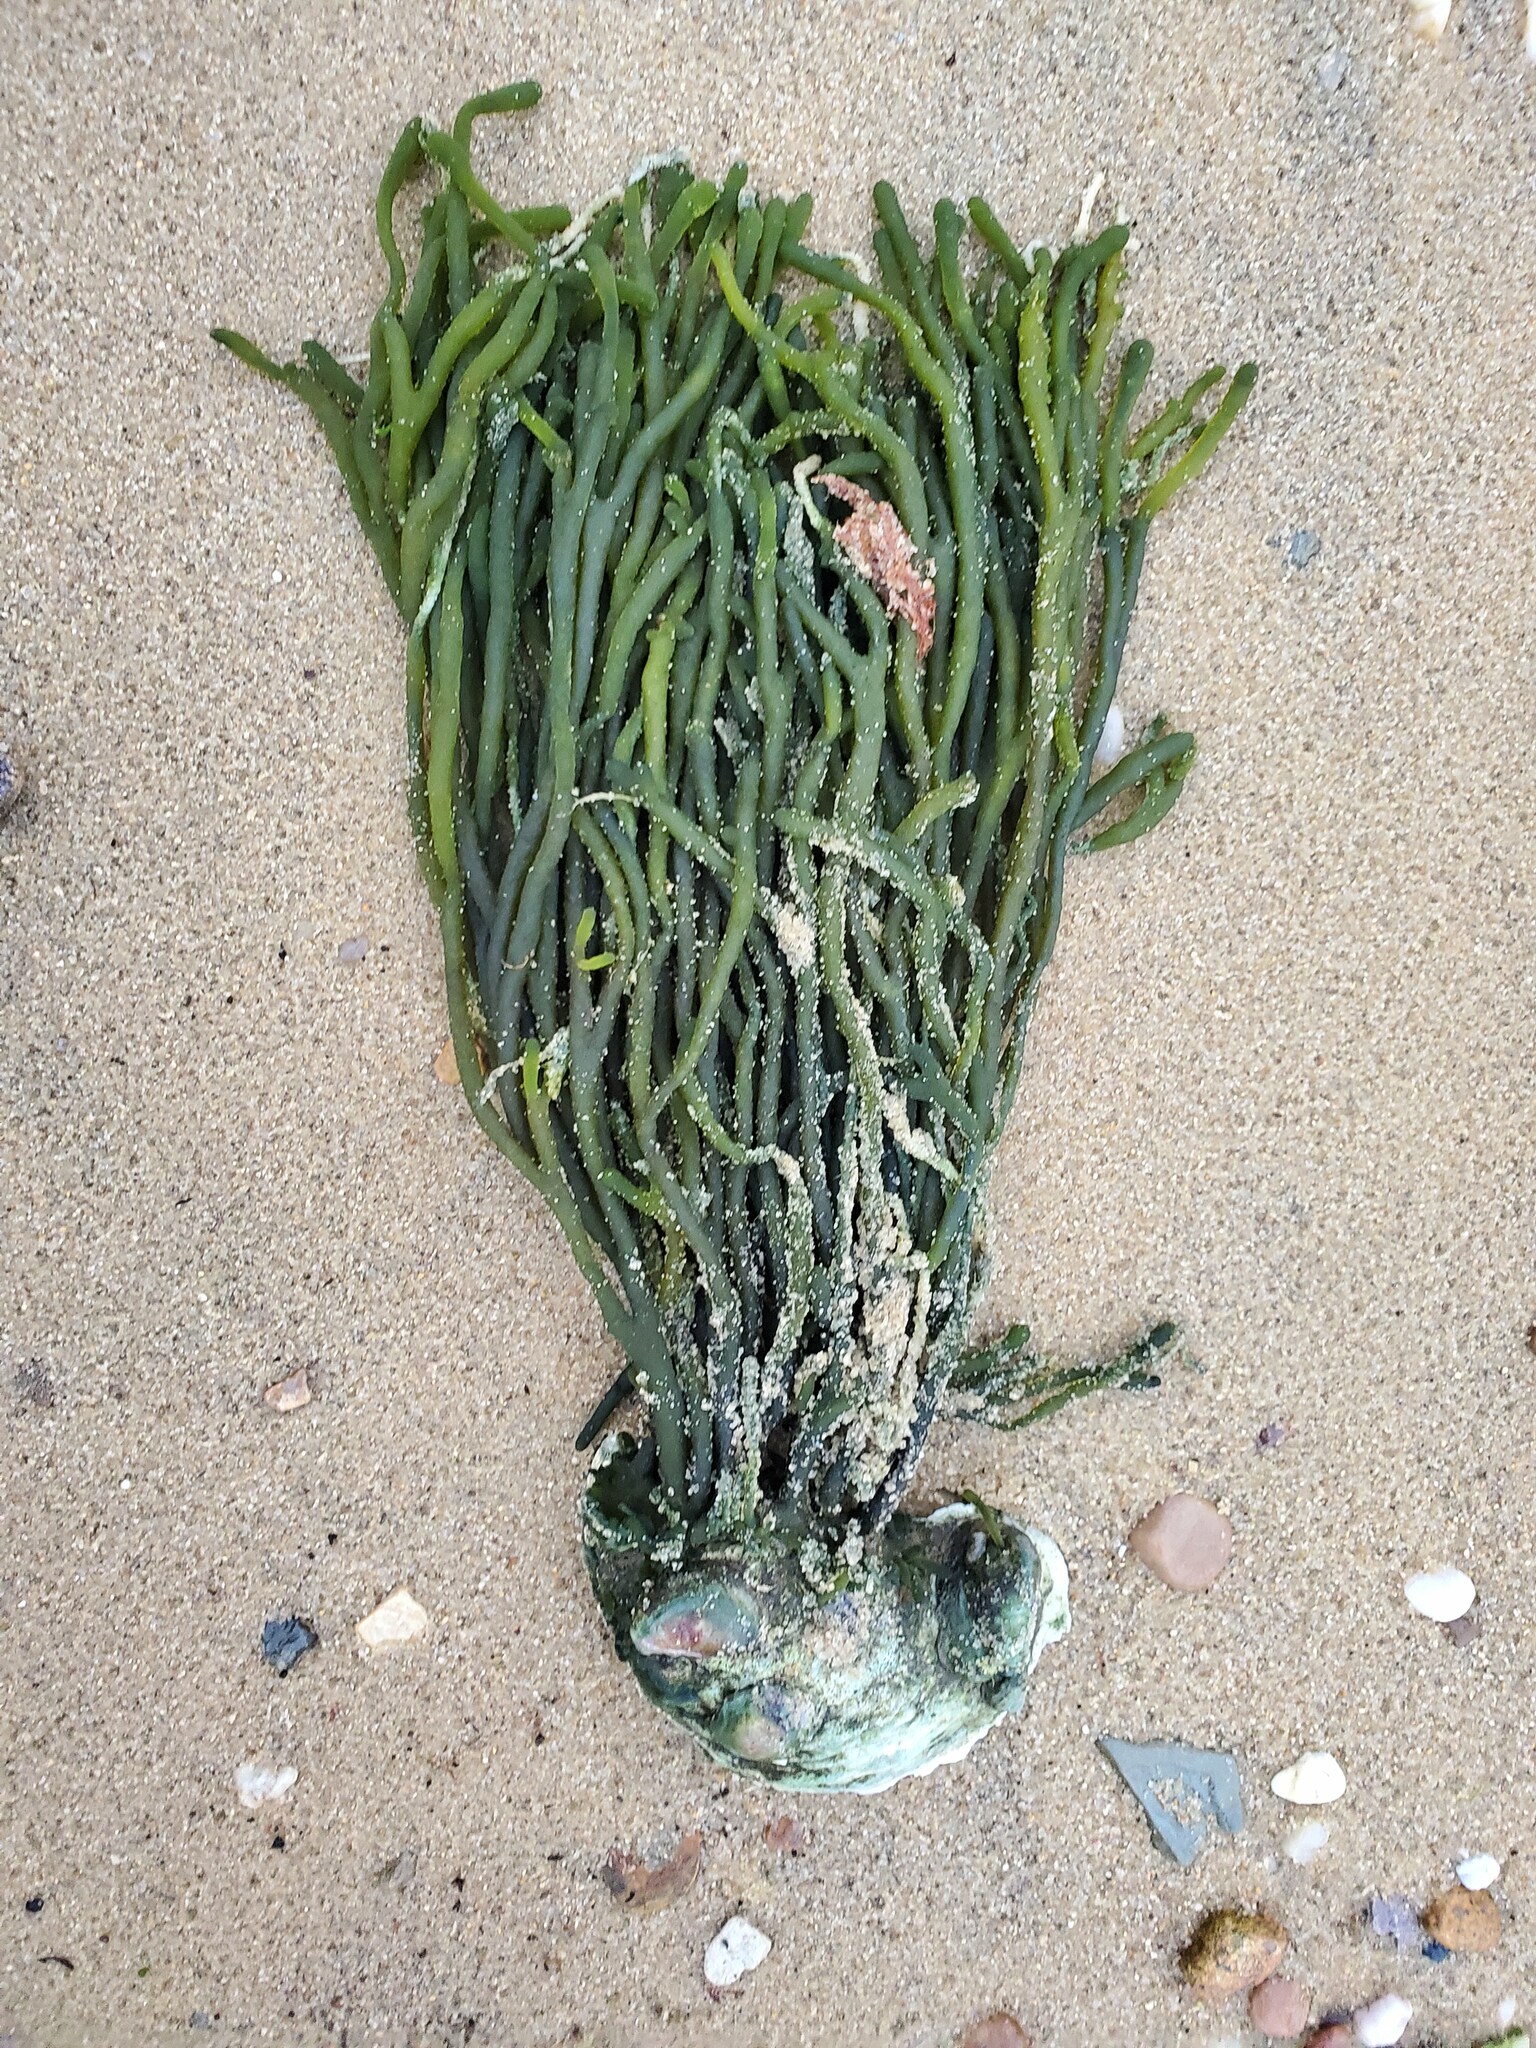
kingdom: Plantae
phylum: Chlorophyta
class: Ulvophyceae
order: Bryopsidales
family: Codiaceae
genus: Codium
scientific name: Codium fragile
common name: Dead man's fingers
